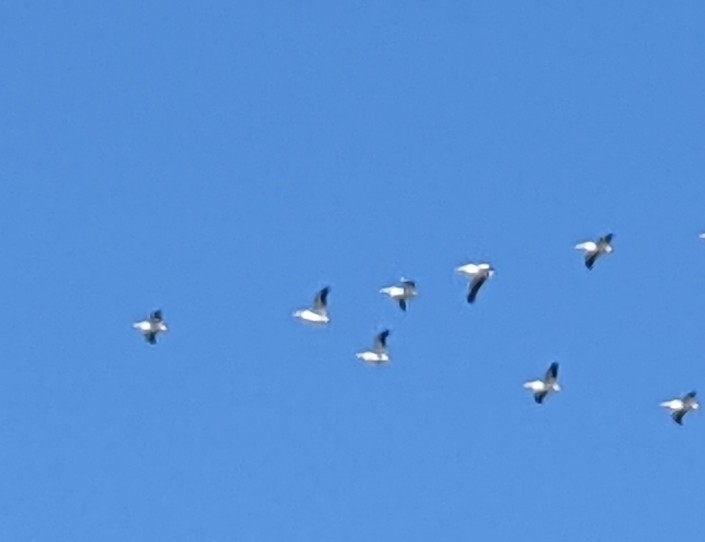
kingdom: Animalia
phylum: Chordata
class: Aves
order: Pelecaniformes
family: Pelecanidae
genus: Pelecanus
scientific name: Pelecanus erythrorhynchos
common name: American white pelican
